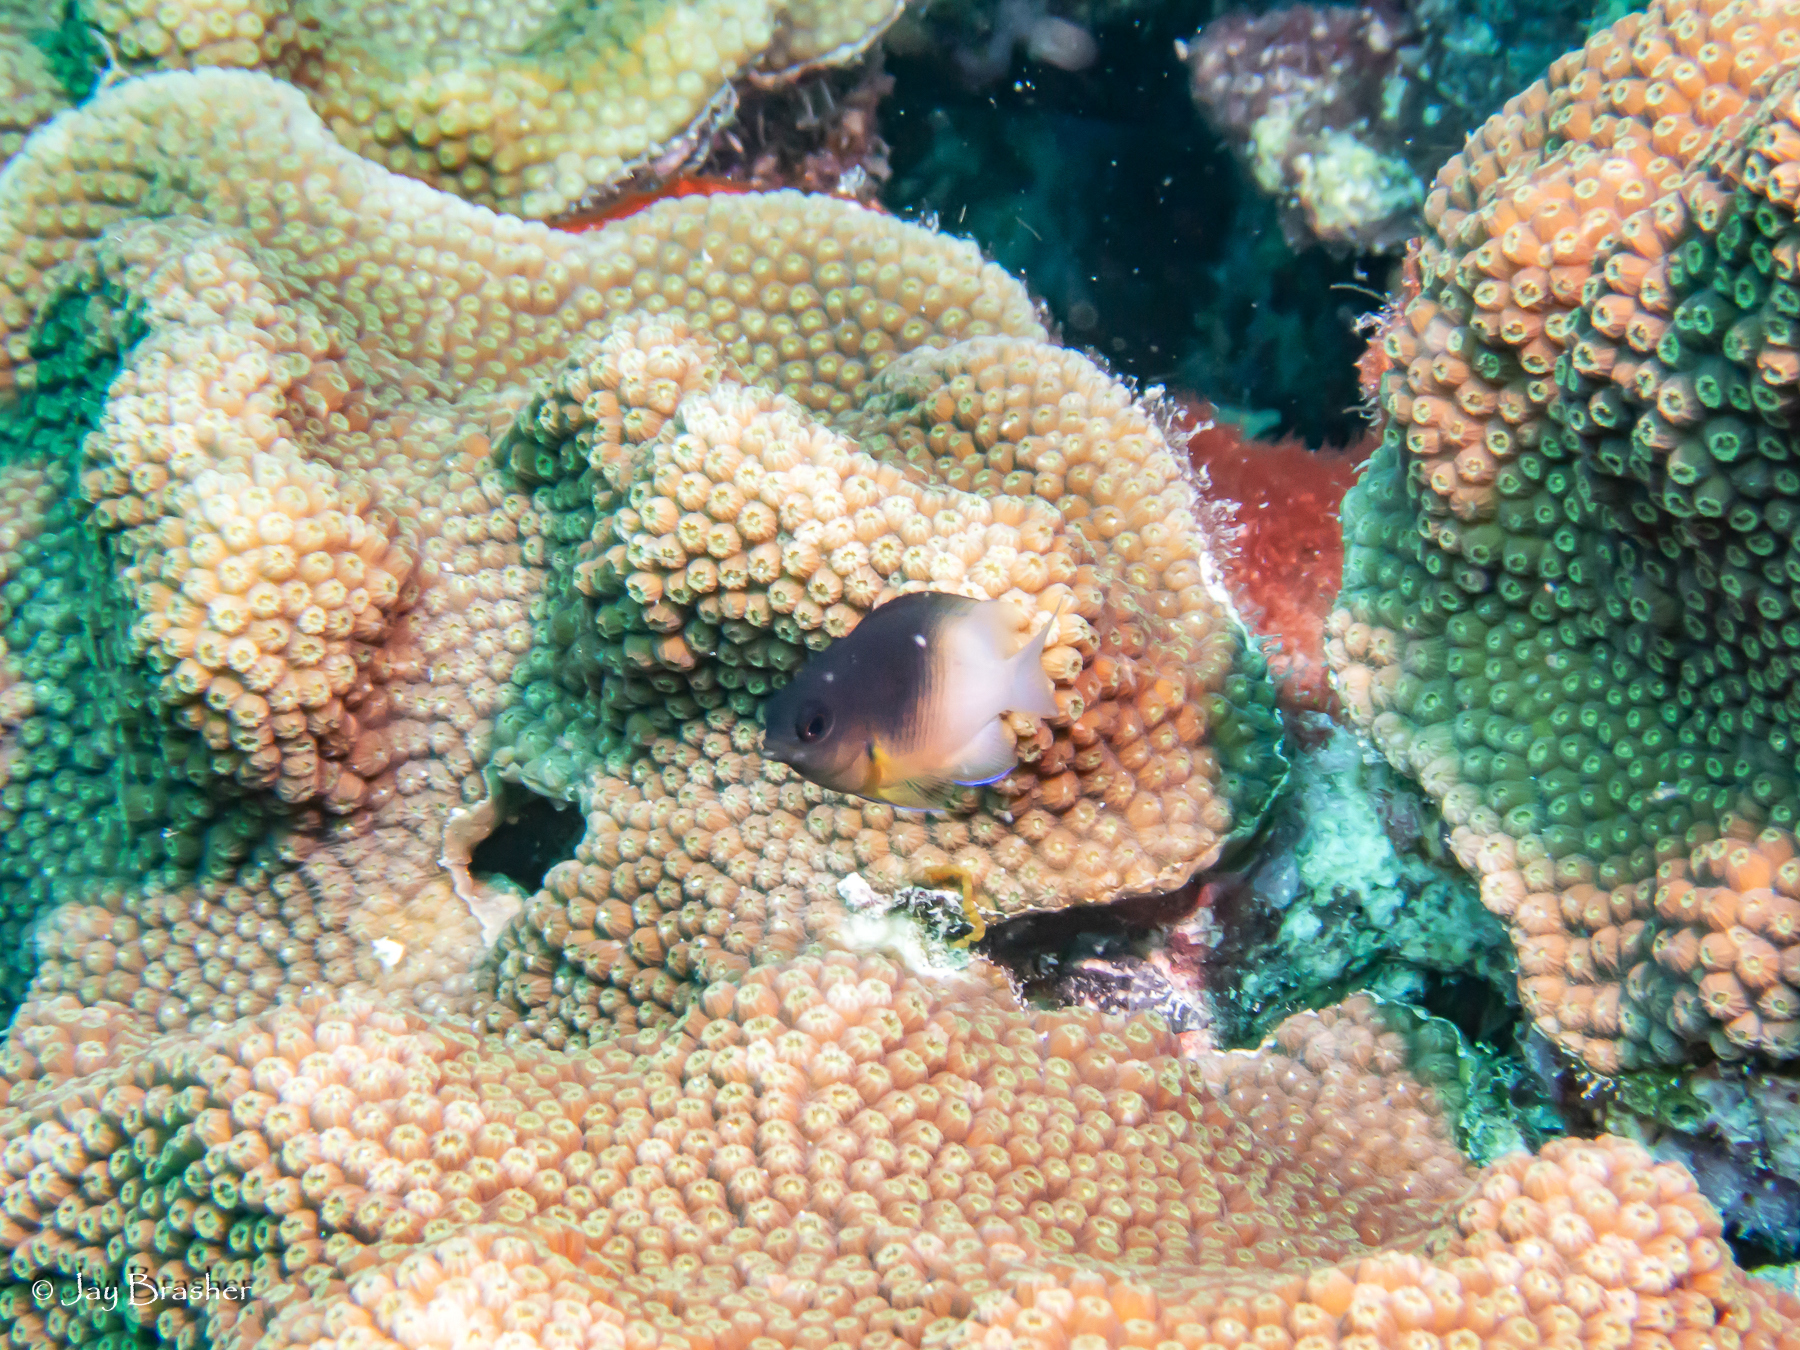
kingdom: Animalia
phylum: Chordata
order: Perciformes
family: Pomacentridae
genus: Stegastes
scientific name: Stegastes partitus
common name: Bicolor damselfish
